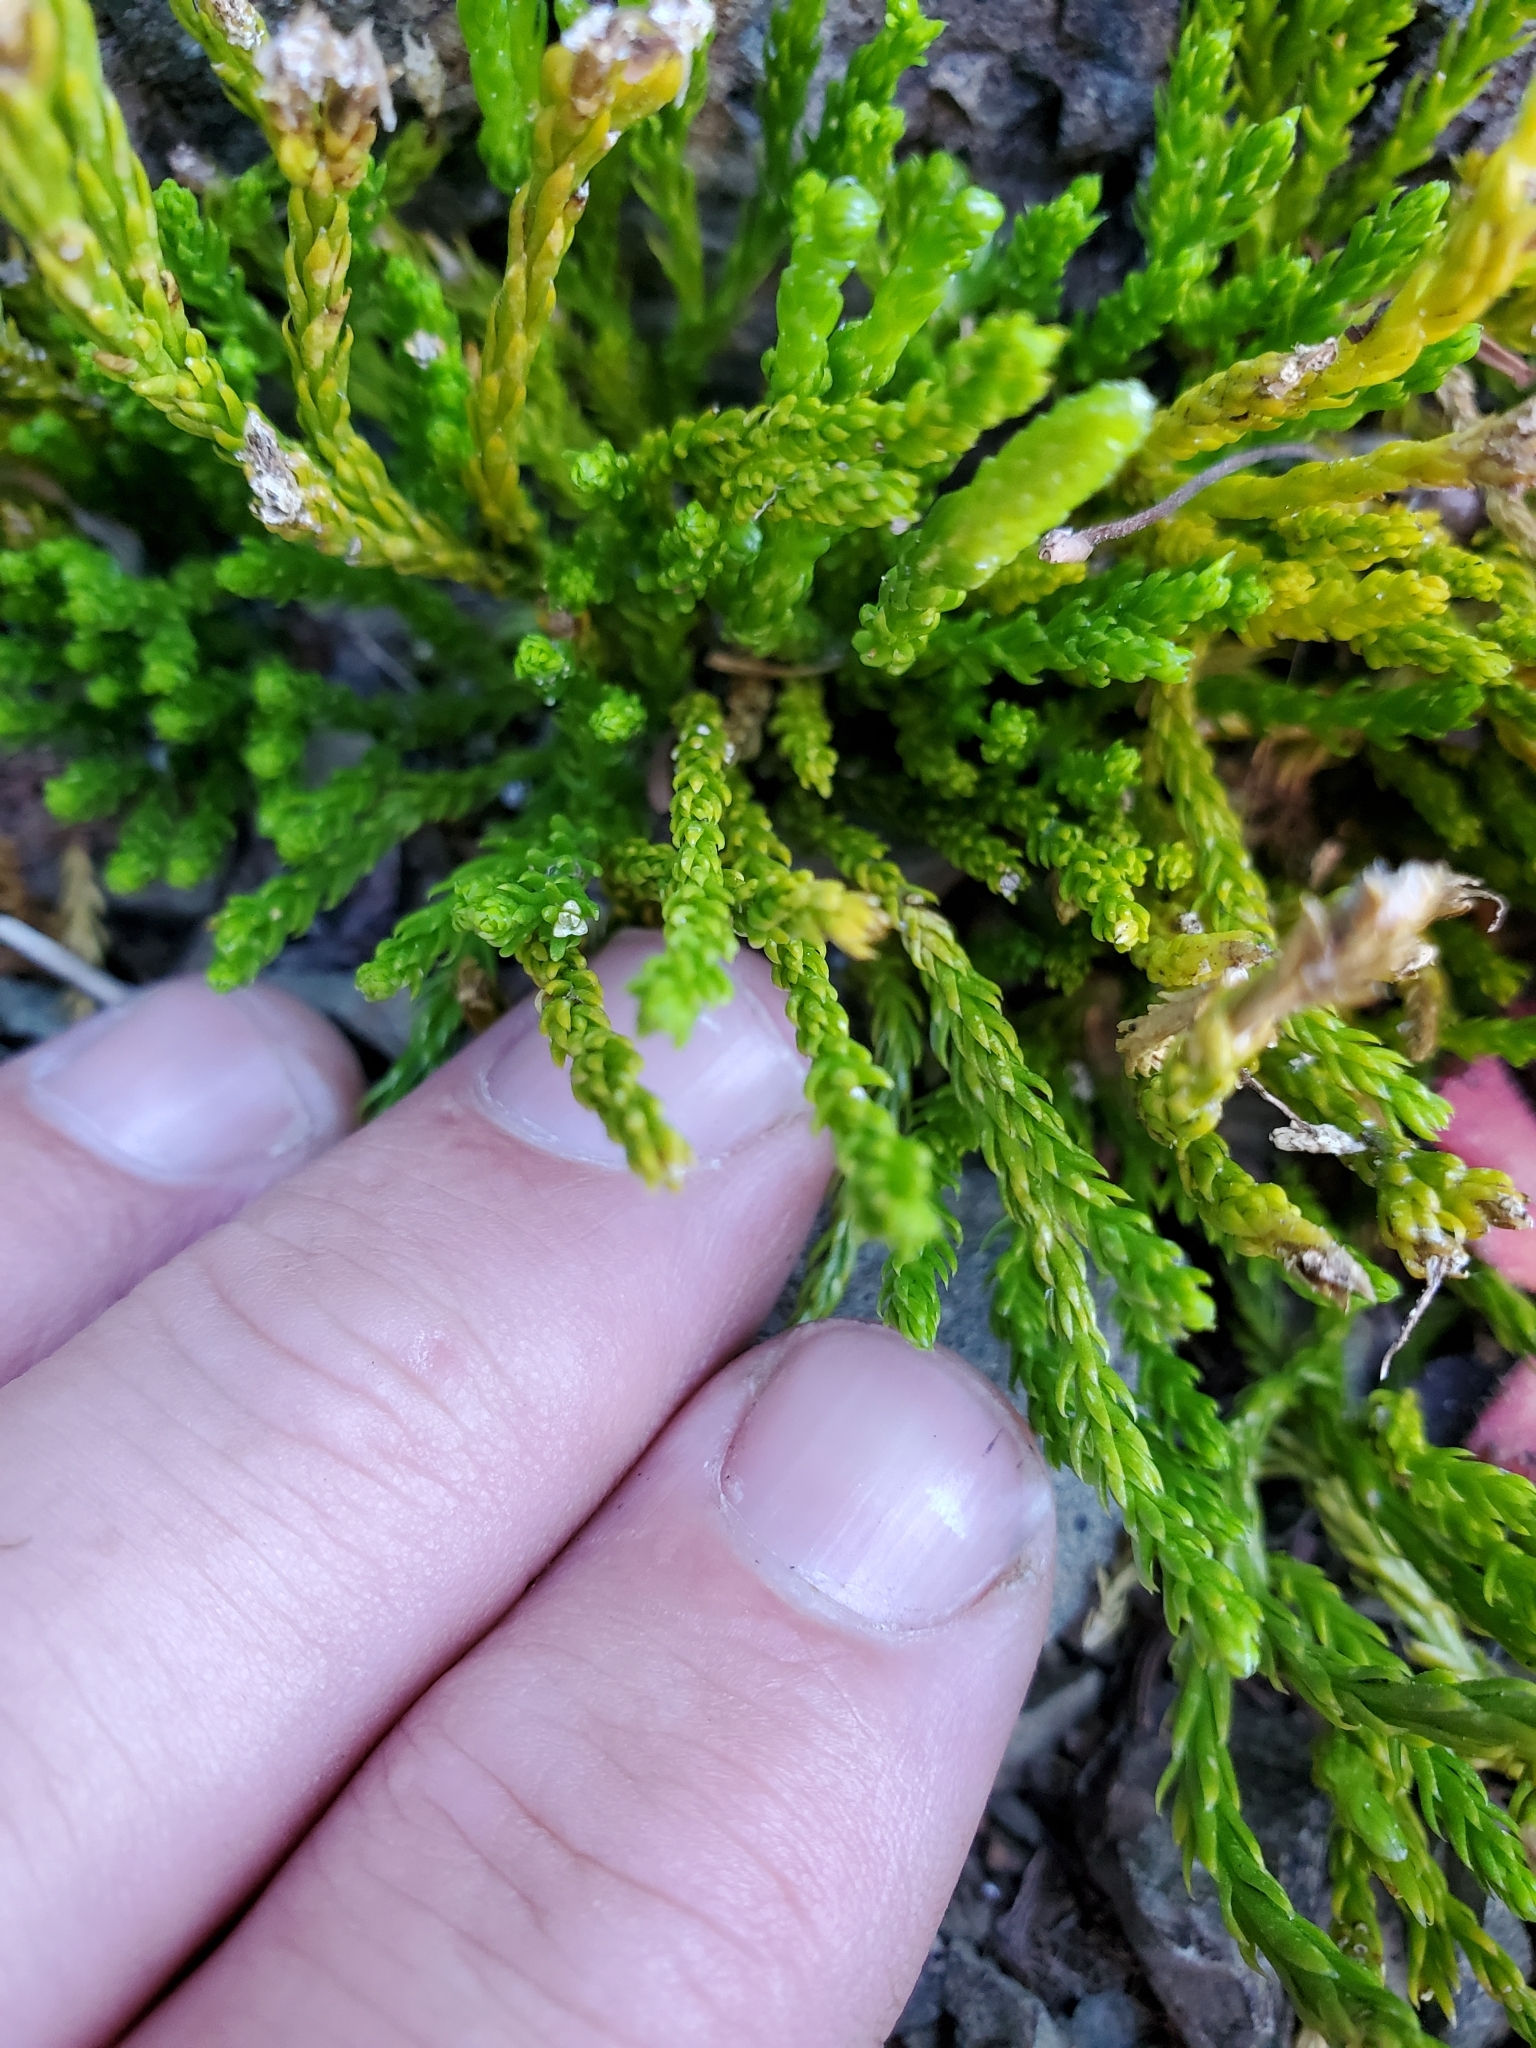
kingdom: Plantae
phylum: Tracheophyta
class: Lycopodiopsida
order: Lycopodiales
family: Lycopodiaceae
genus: Diphasiastrum
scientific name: Diphasiastrum sitchense
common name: Alaska clubmoss
